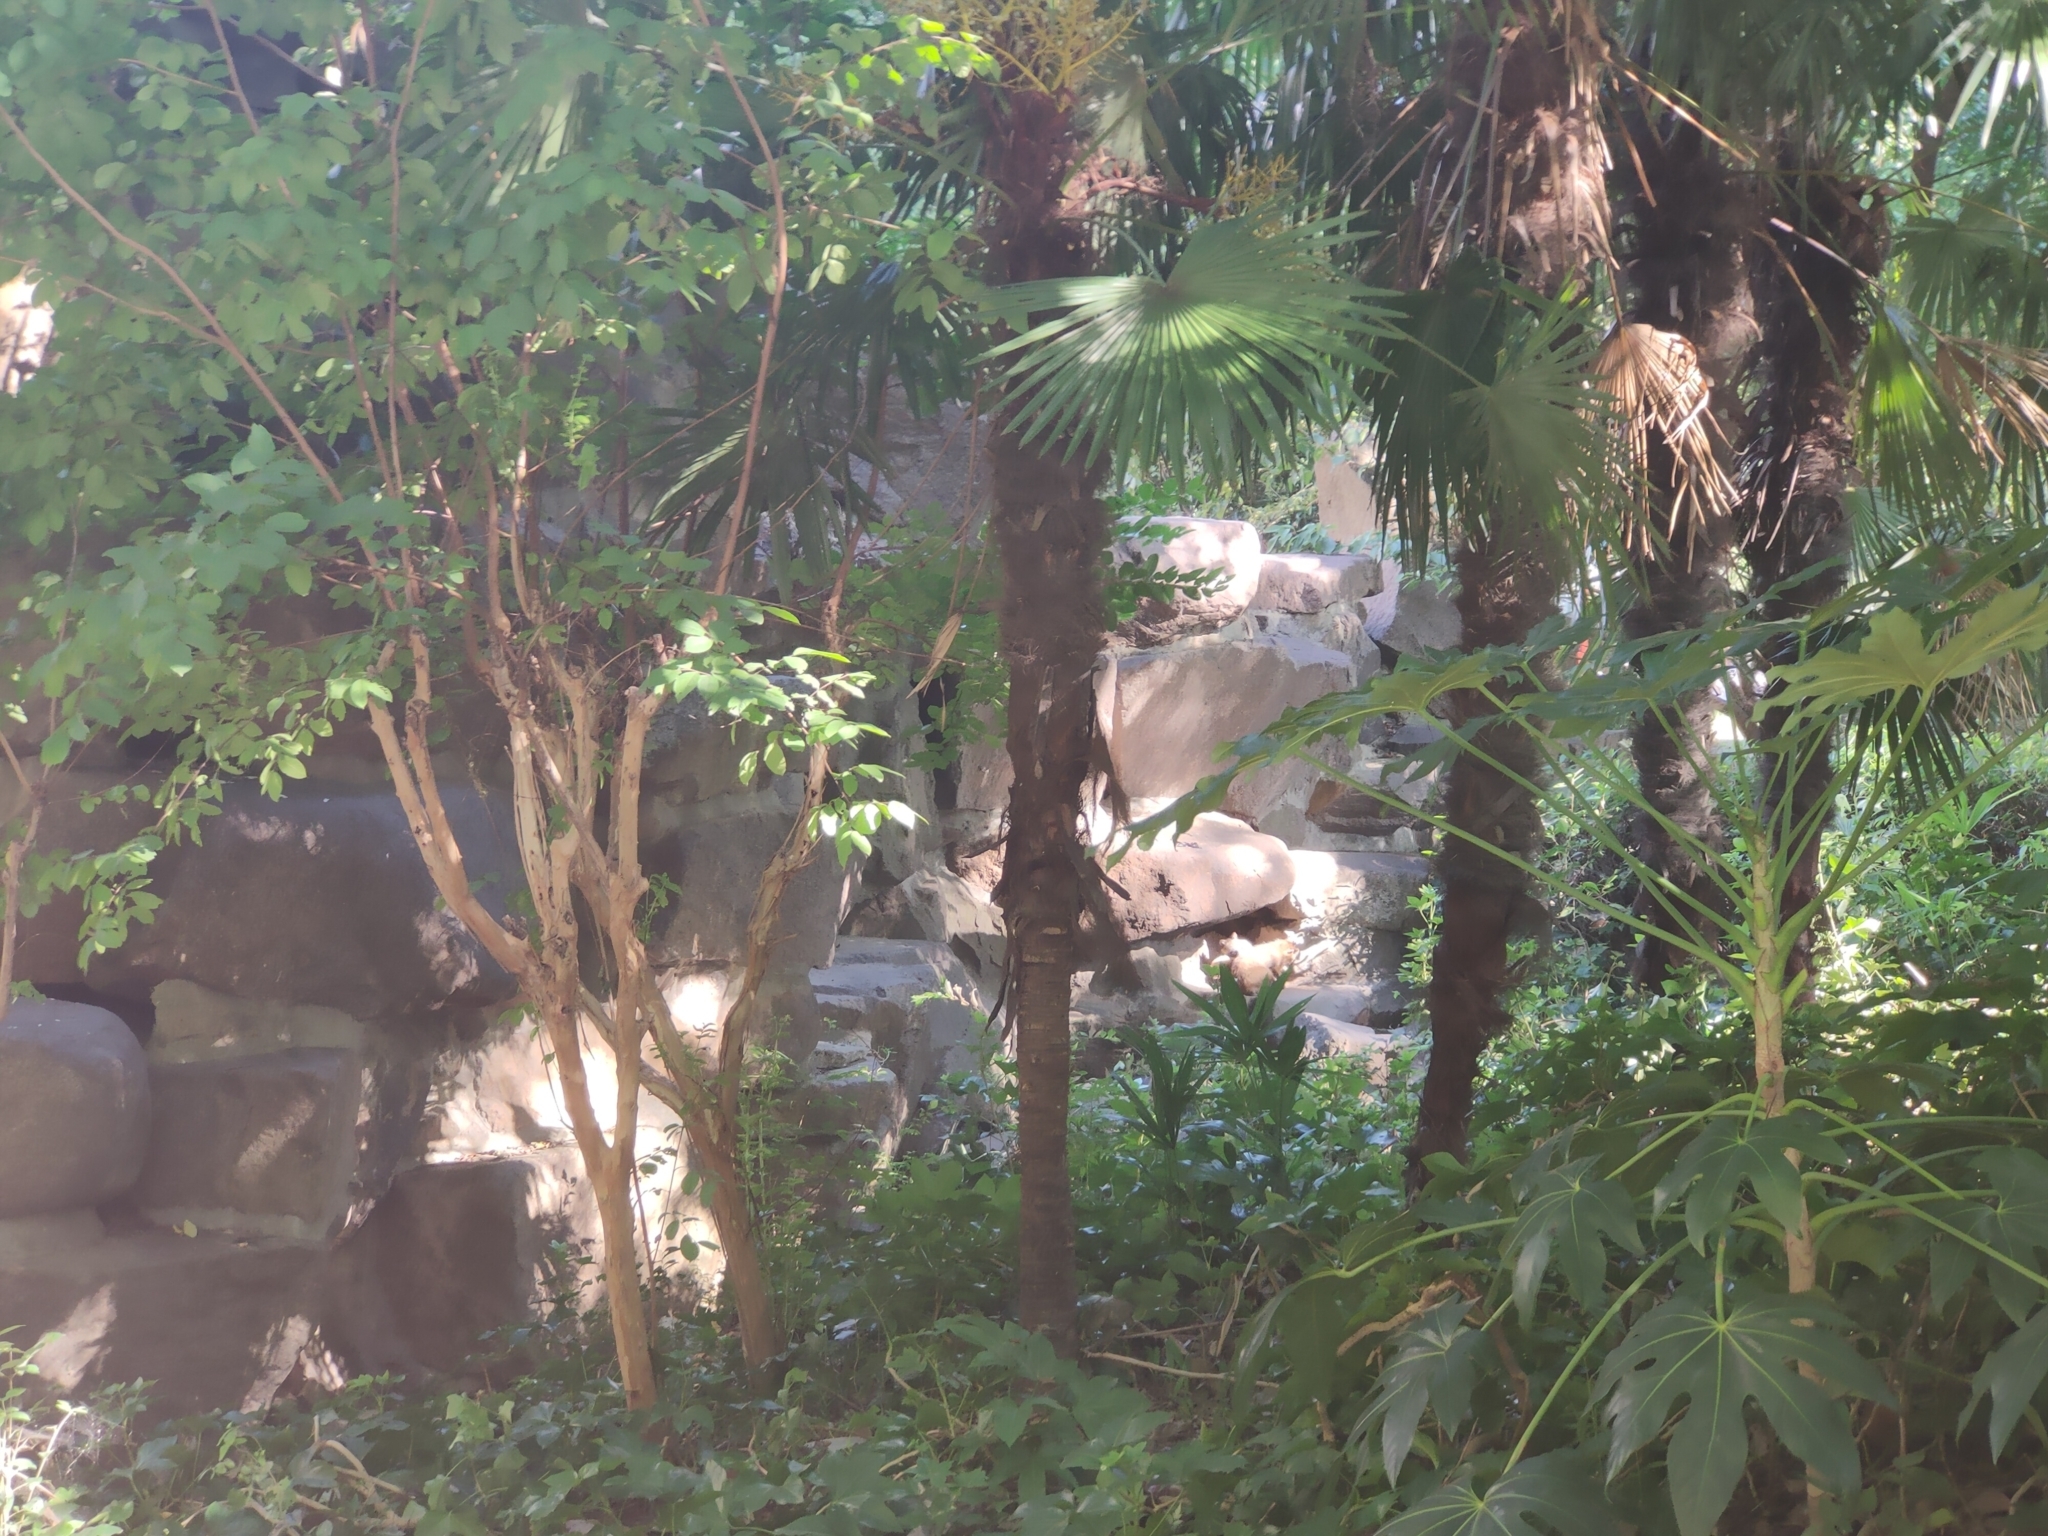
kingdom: Animalia
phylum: Chordata
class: Mammalia
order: Carnivora
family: Canidae
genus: Nyctereutes
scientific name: Nyctereutes procyonoides
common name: Raccoon dog
